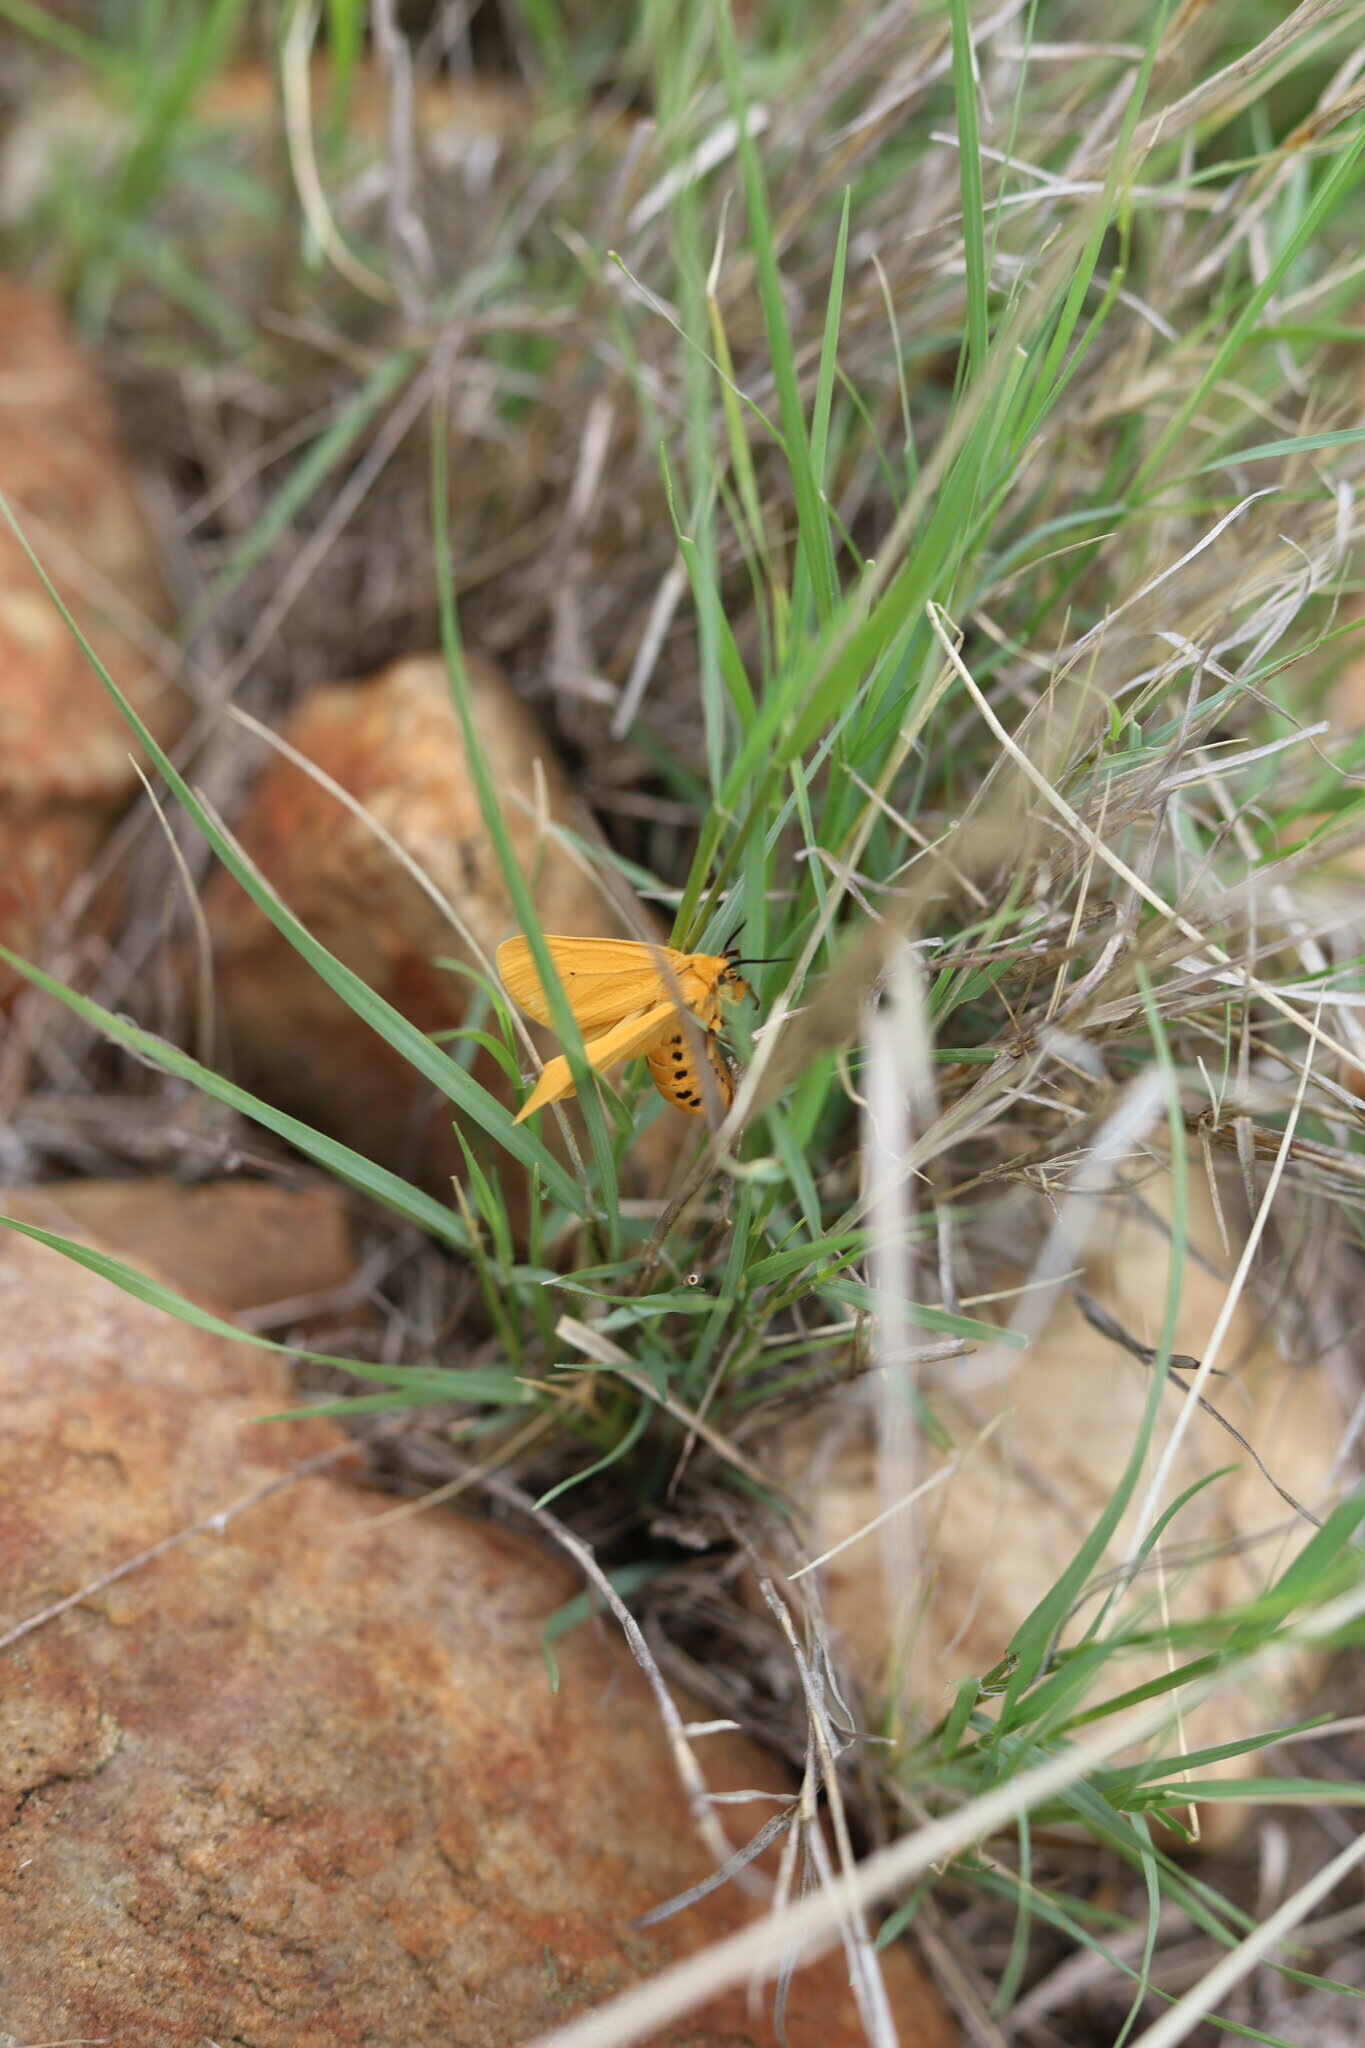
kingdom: Animalia
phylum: Arthropoda
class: Insecta
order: Lepidoptera
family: Erebidae
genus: Saenura
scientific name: Saenura flava
